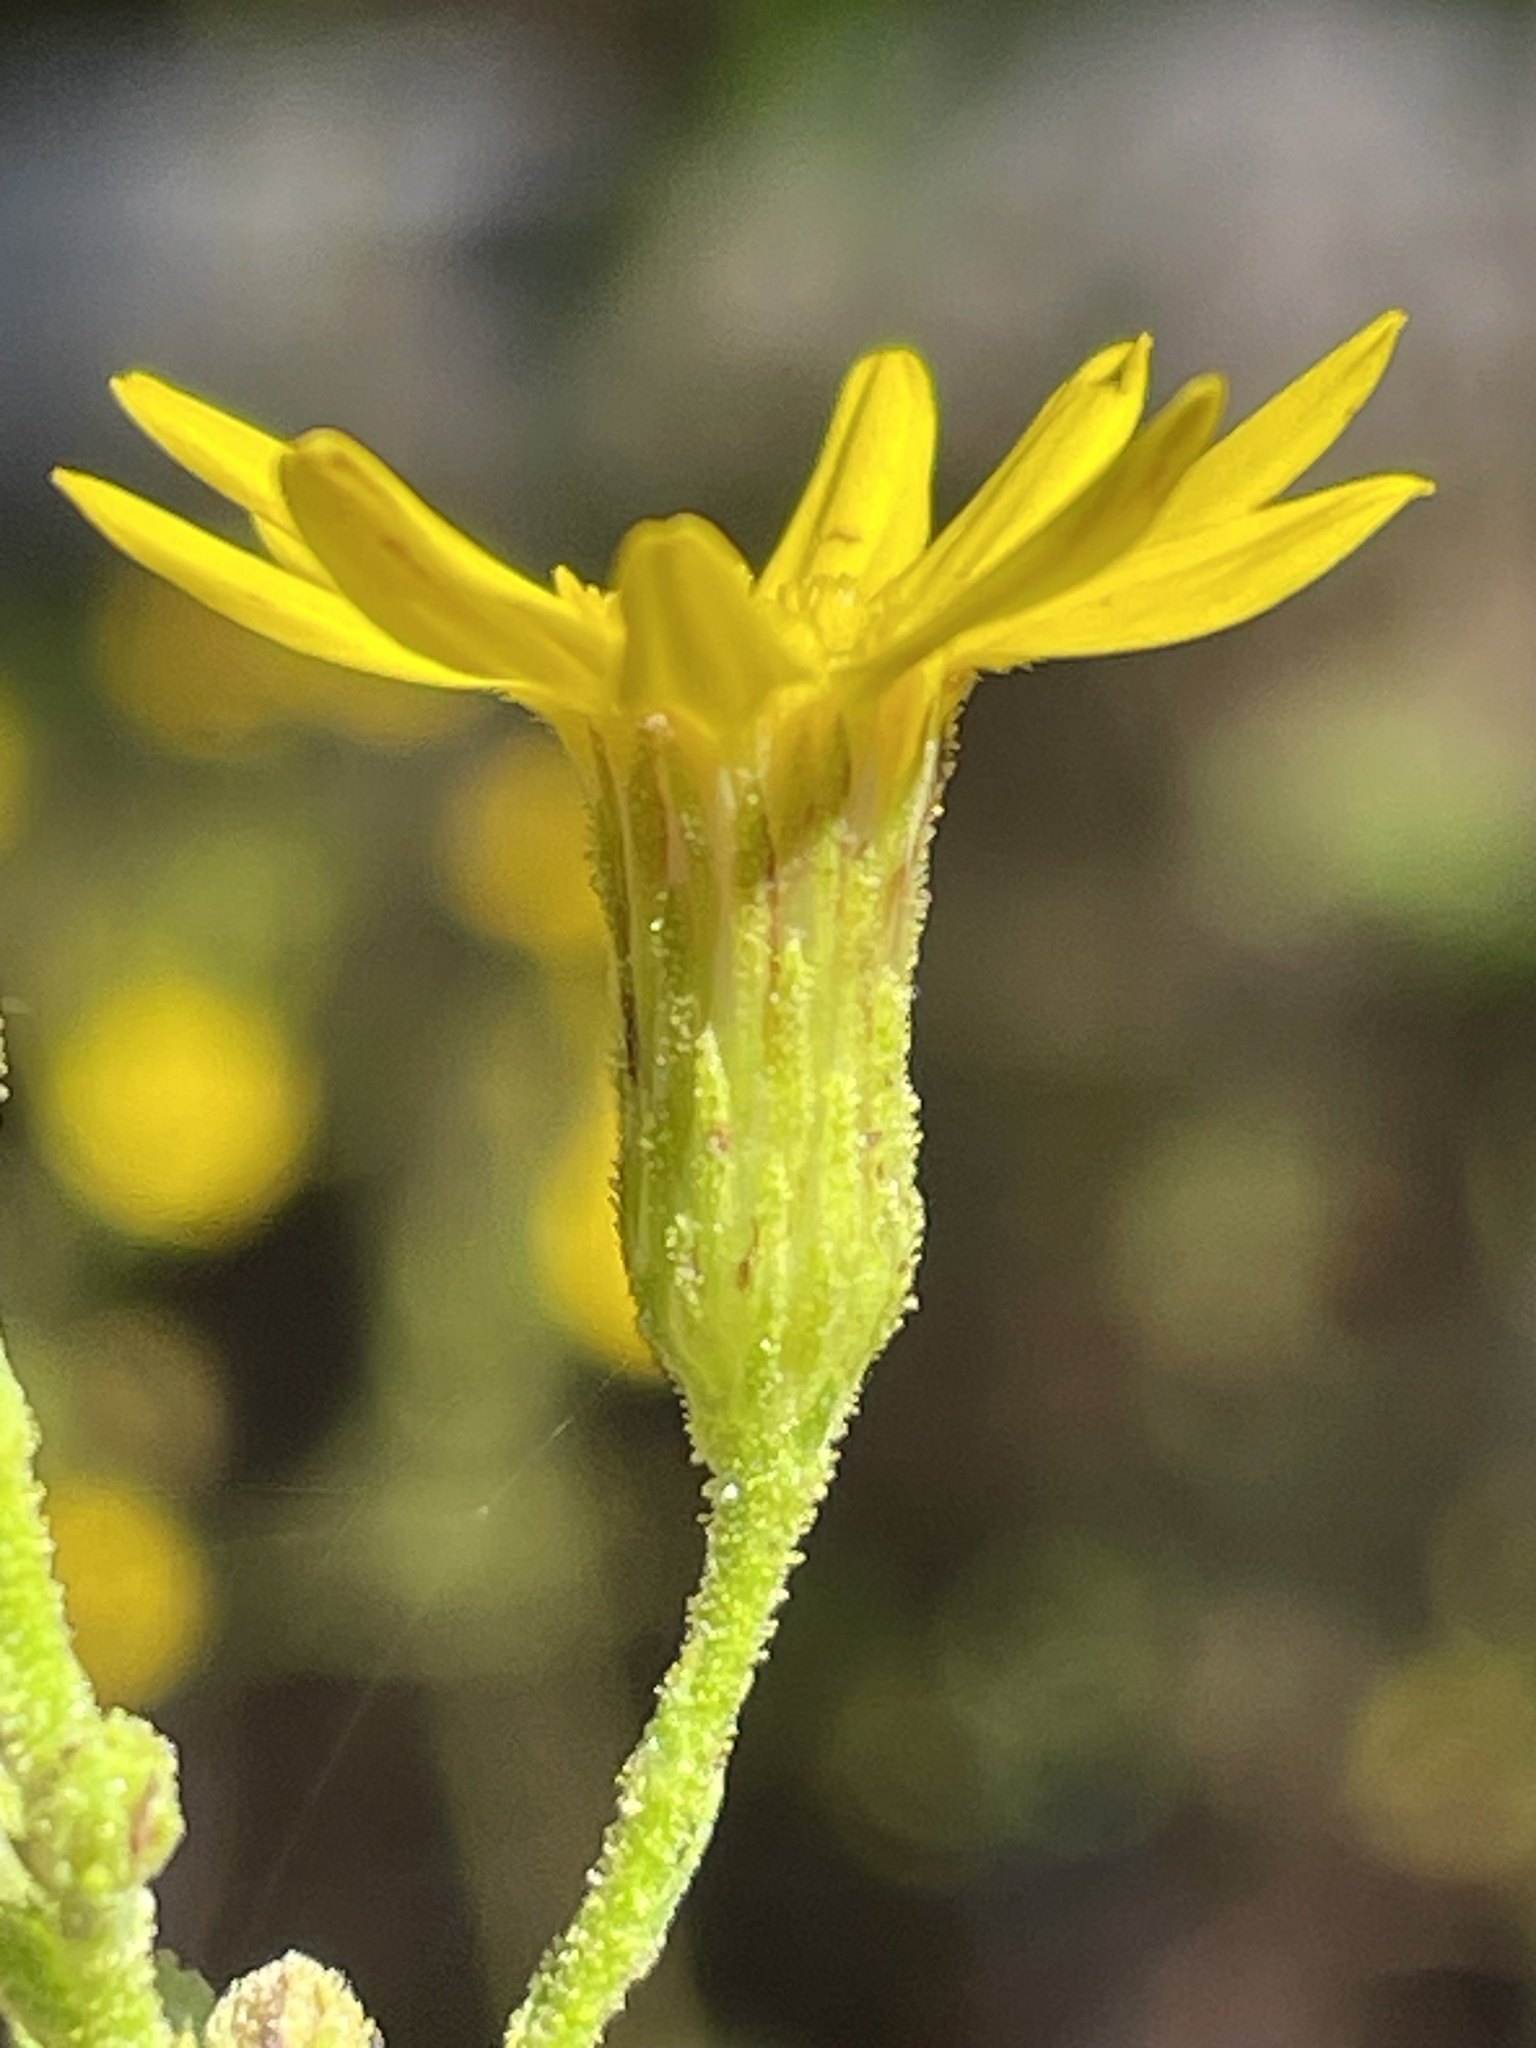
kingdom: Plantae
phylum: Tracheophyta
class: Magnoliopsida
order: Asterales
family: Asteraceae
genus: Pityopsis
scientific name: Pityopsis aspera
